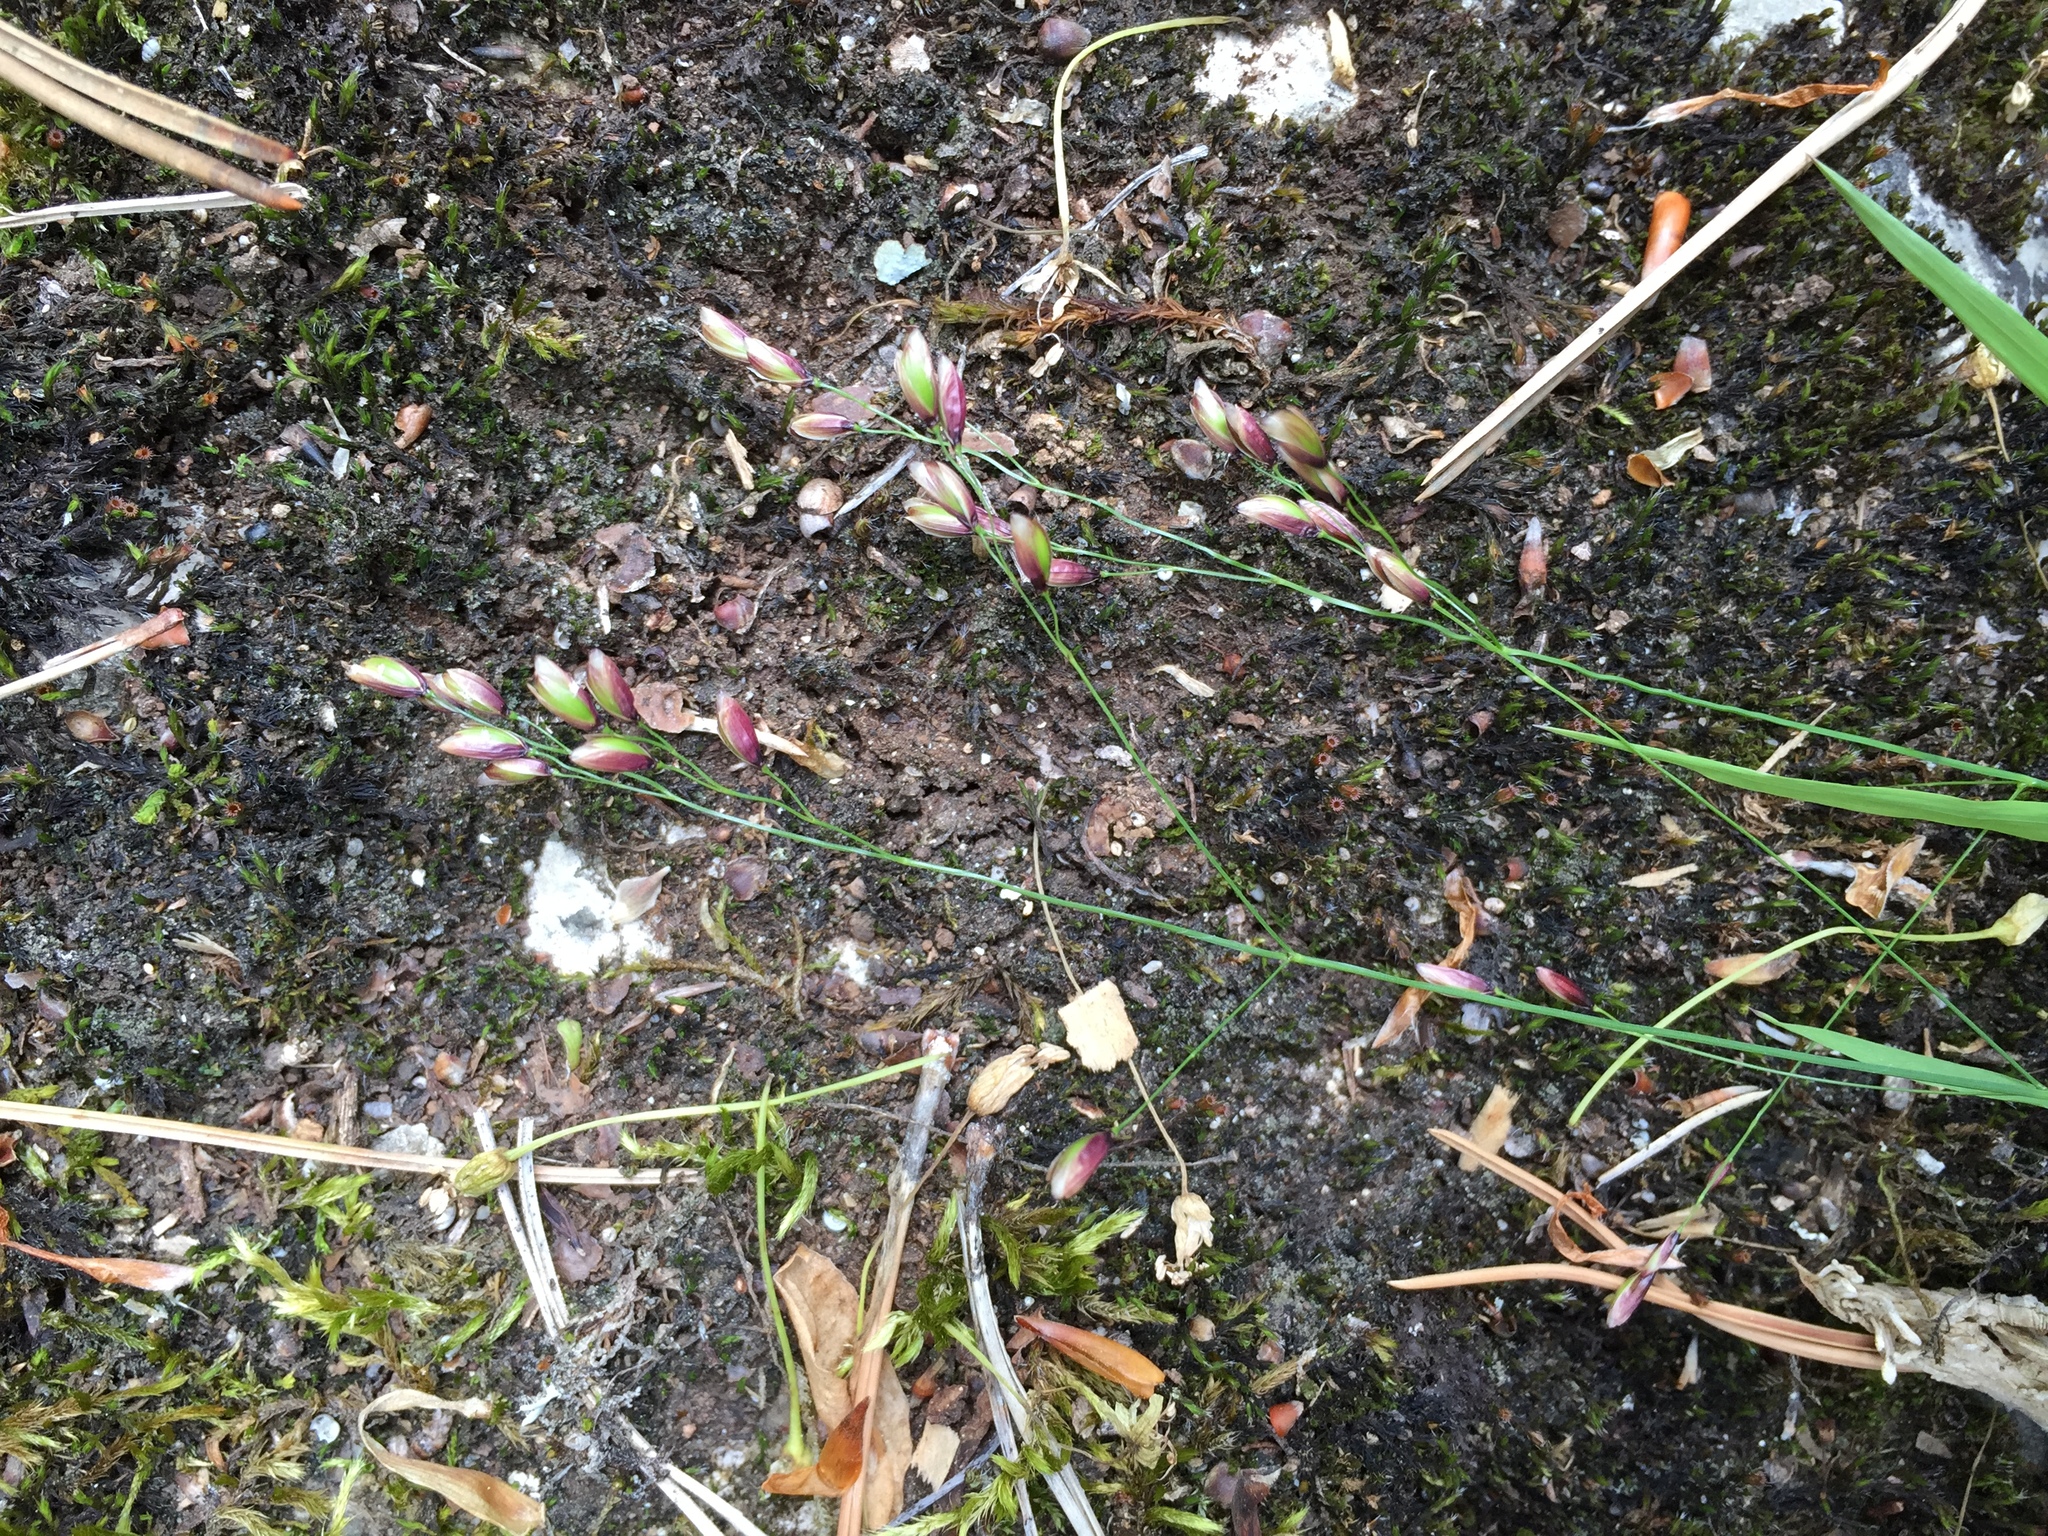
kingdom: Plantae
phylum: Tracheophyta
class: Liliopsida
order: Poales
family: Poaceae
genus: Melica
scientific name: Melica uniflora
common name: Wood melick
